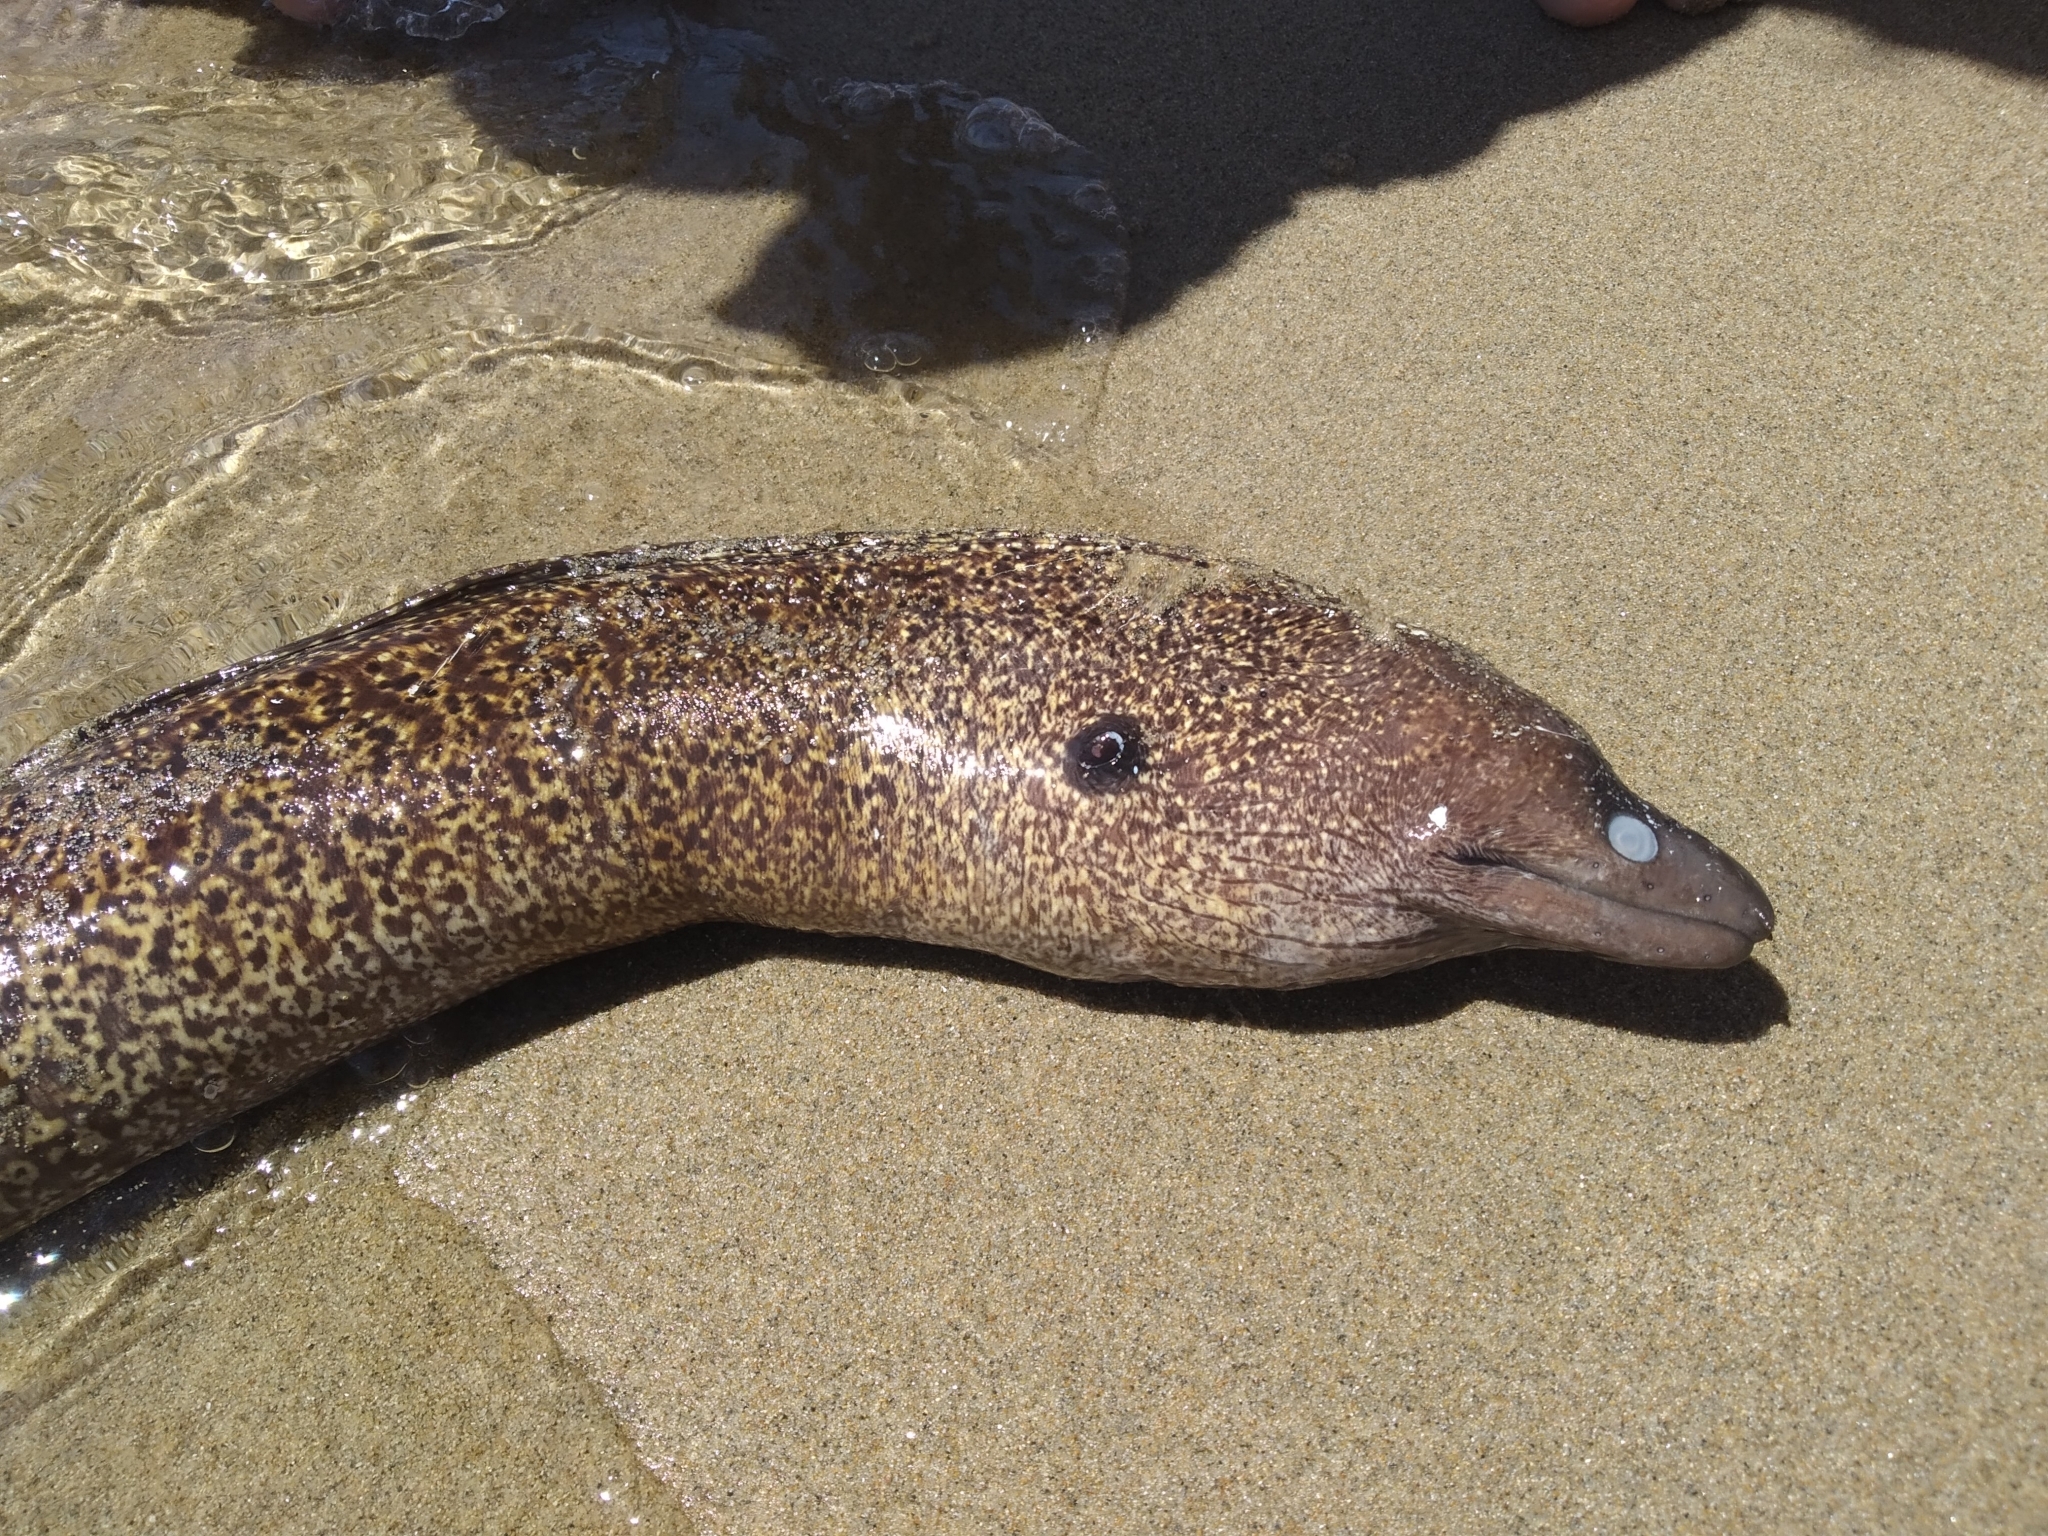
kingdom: Animalia
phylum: Chordata
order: Anguilliformes
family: Muraenidae
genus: Muraena
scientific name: Muraena helena
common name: Mediterranean moray
